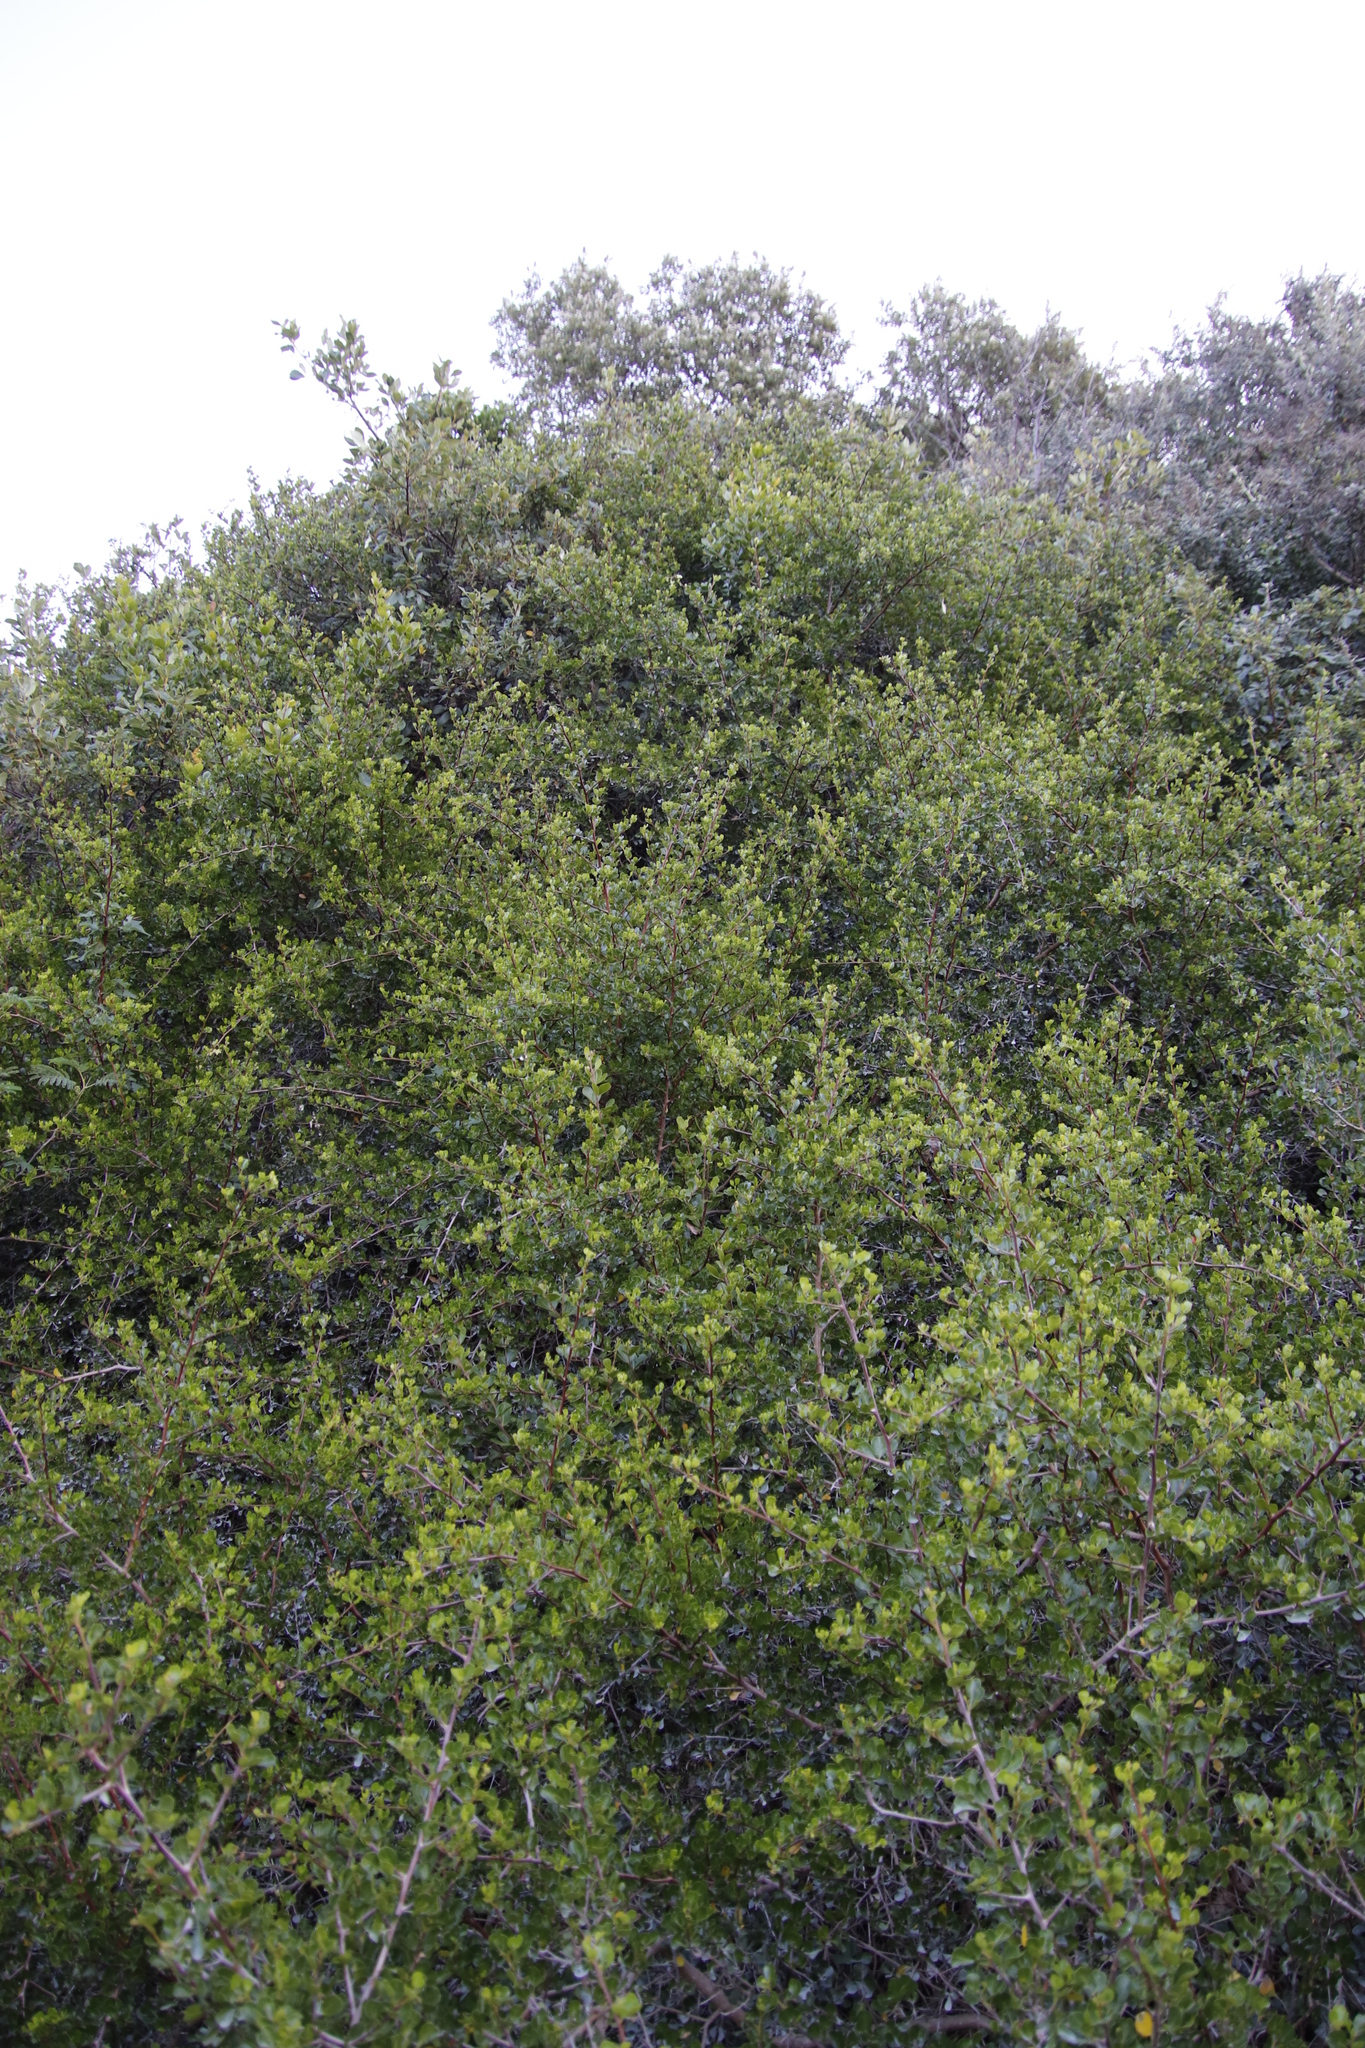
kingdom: Plantae
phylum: Tracheophyta
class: Magnoliopsida
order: Sapindales
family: Anacardiaceae
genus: Searsia
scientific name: Searsia glauca
